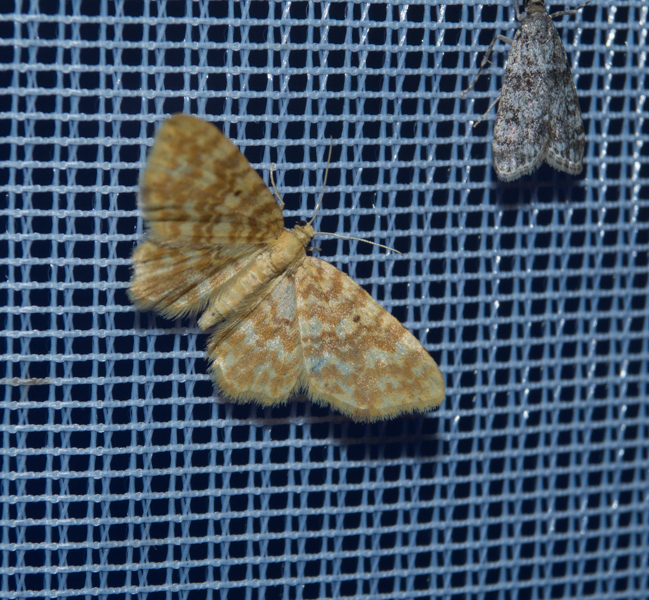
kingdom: Animalia
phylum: Arthropoda
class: Insecta
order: Lepidoptera
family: Geometridae
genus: Hydrelia
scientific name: Hydrelia flammeolaria
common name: Small yellow wave
